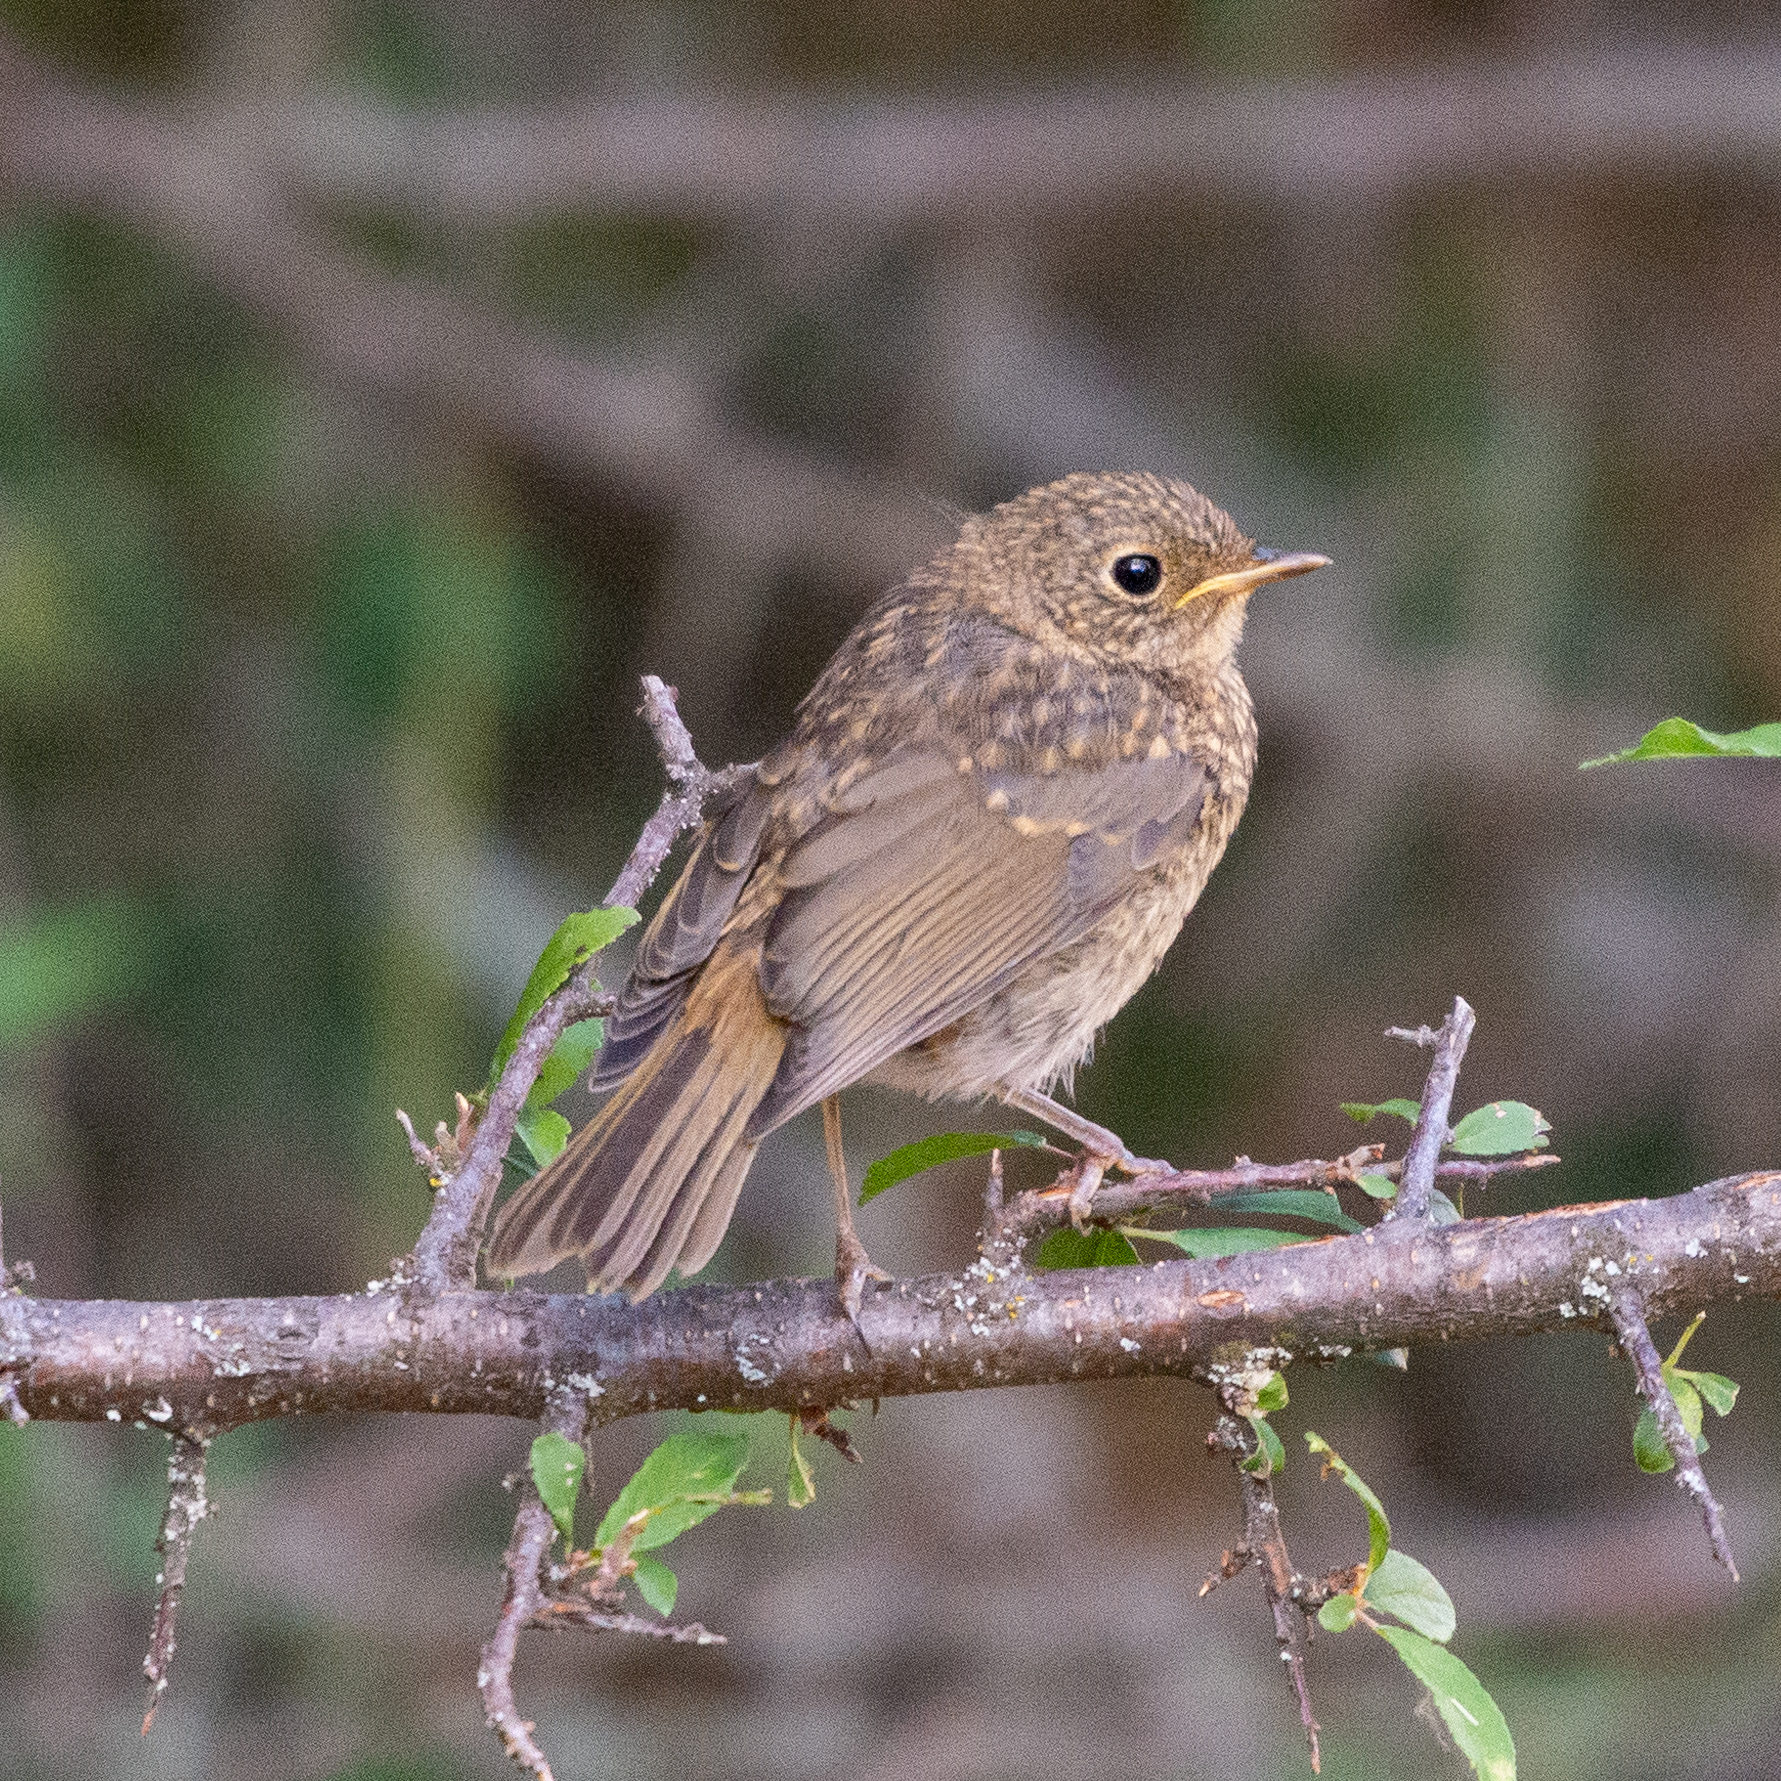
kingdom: Animalia
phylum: Chordata
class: Aves
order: Passeriformes
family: Muscicapidae
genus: Erithacus
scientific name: Erithacus rubecula
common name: European robin
